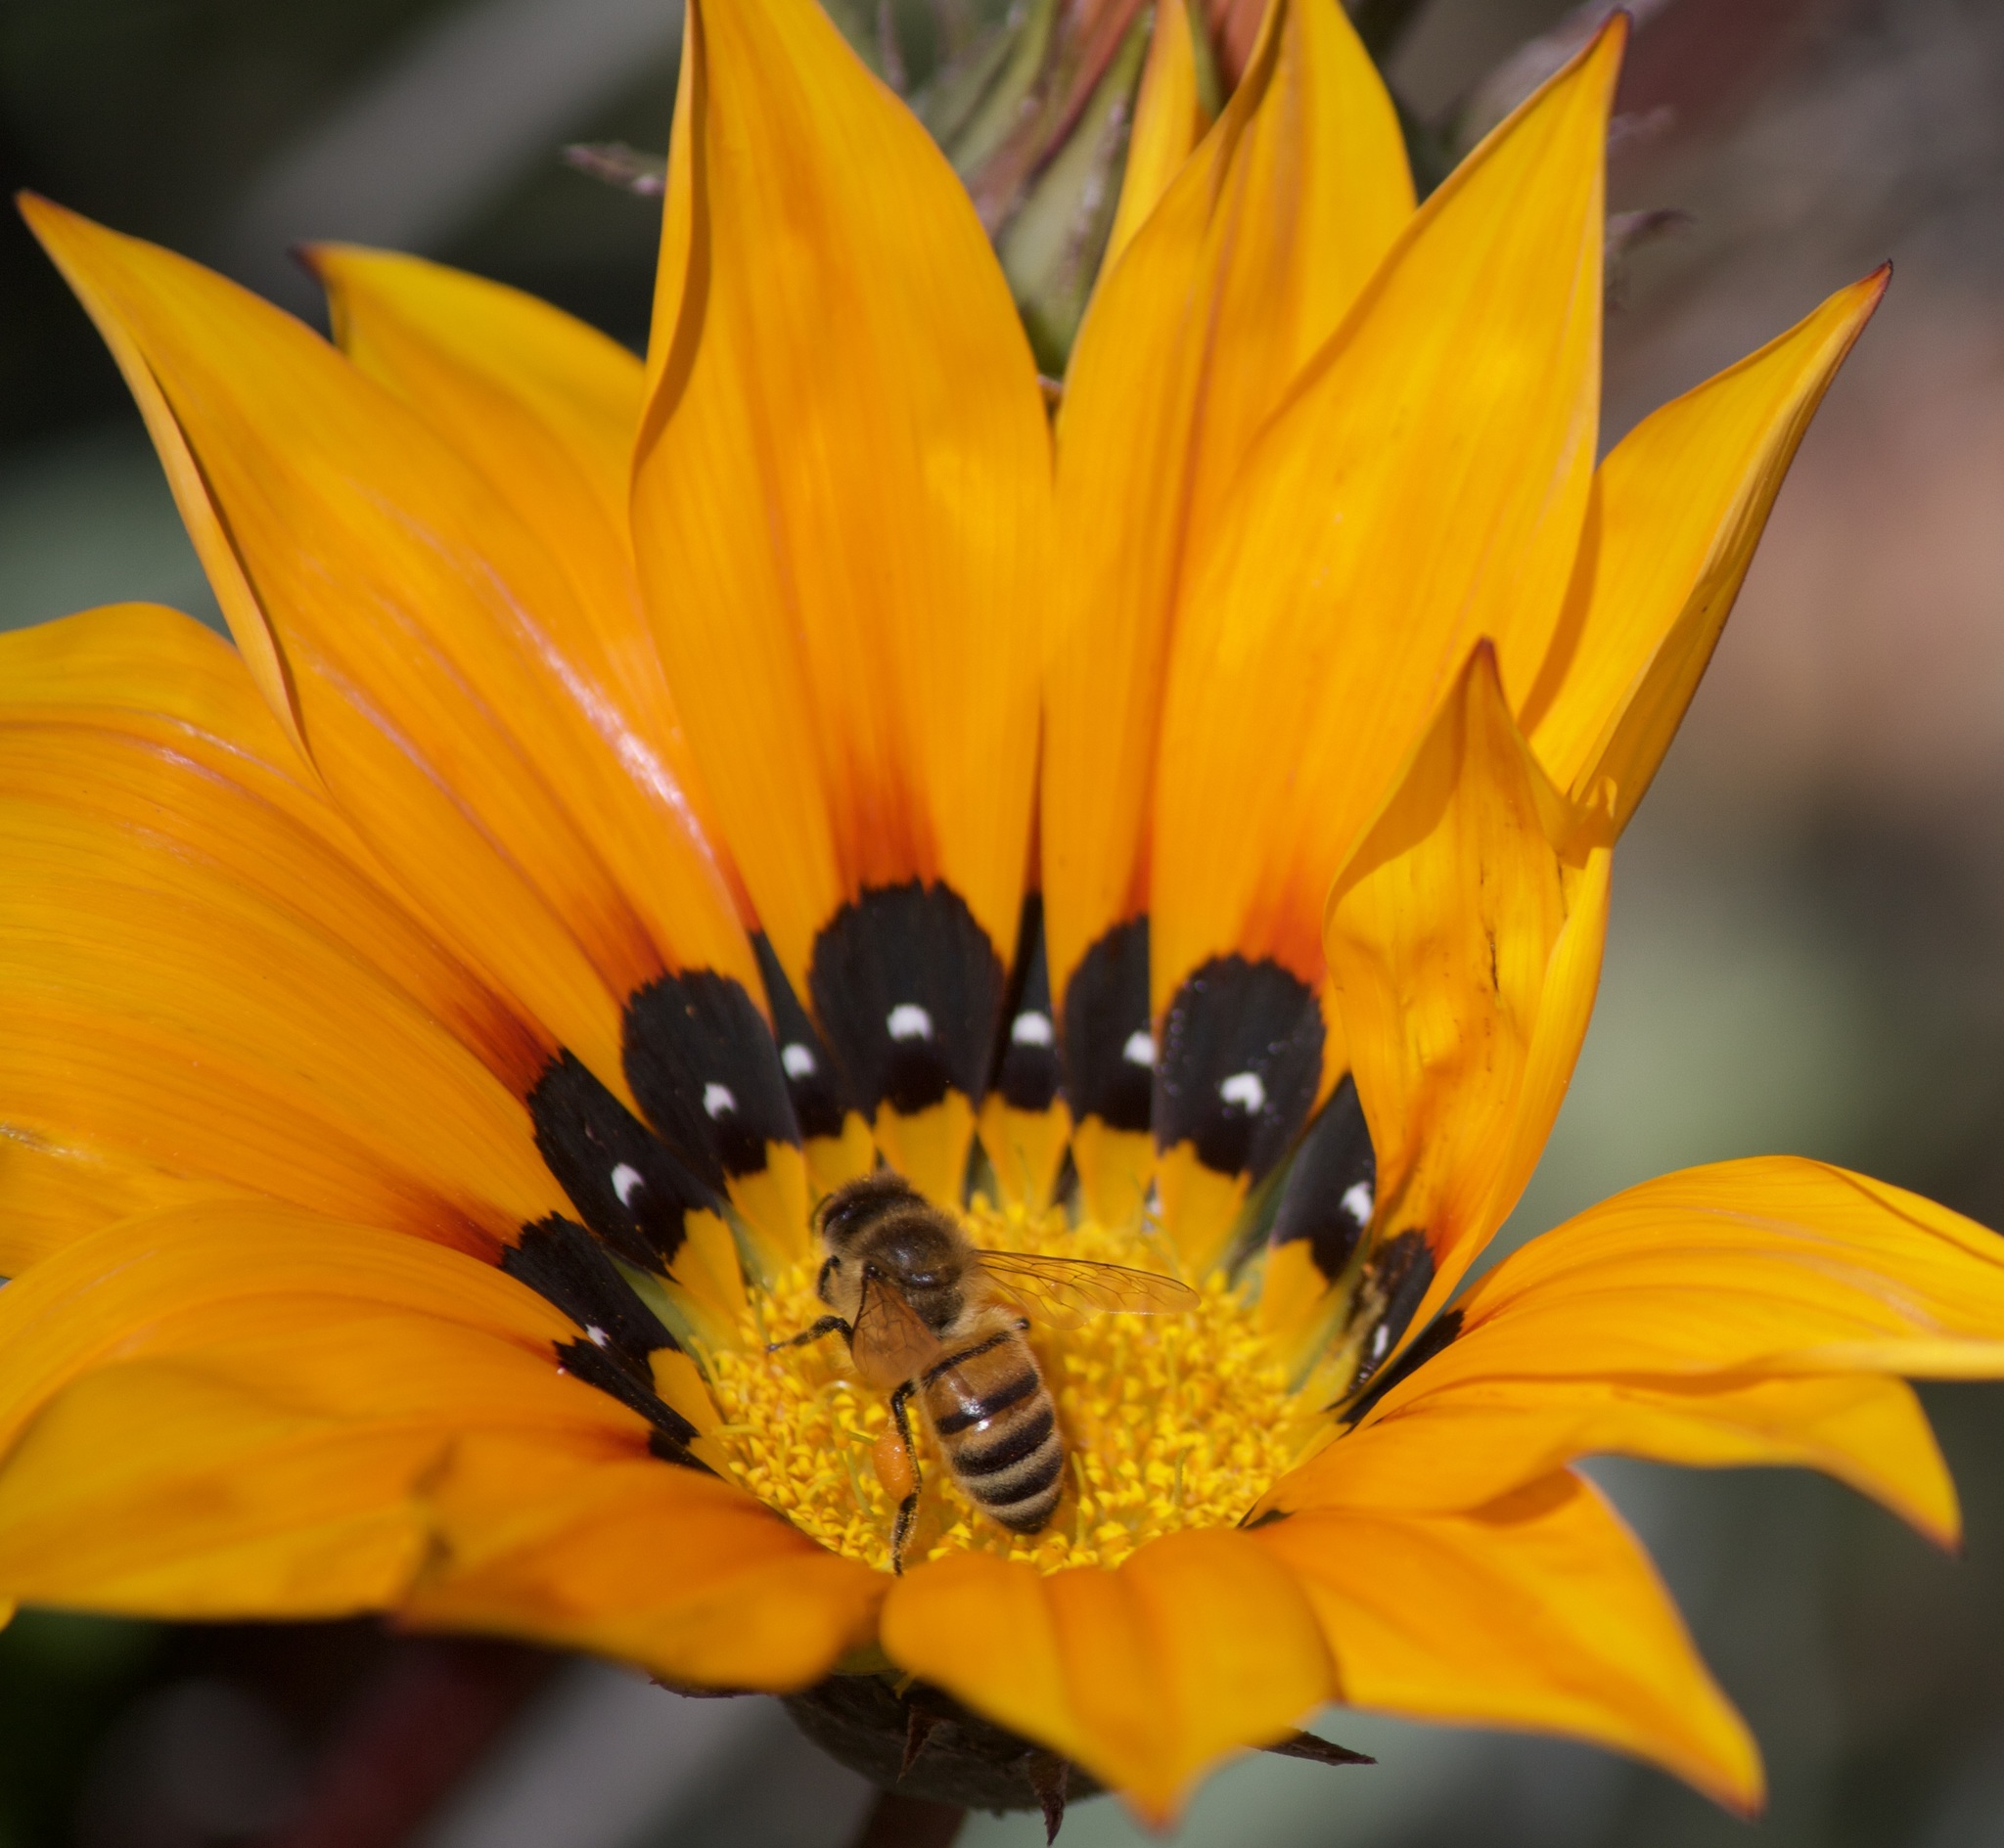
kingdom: Animalia
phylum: Arthropoda
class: Insecta
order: Hymenoptera
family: Apidae
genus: Apis
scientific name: Apis mellifera
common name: Honey bee
